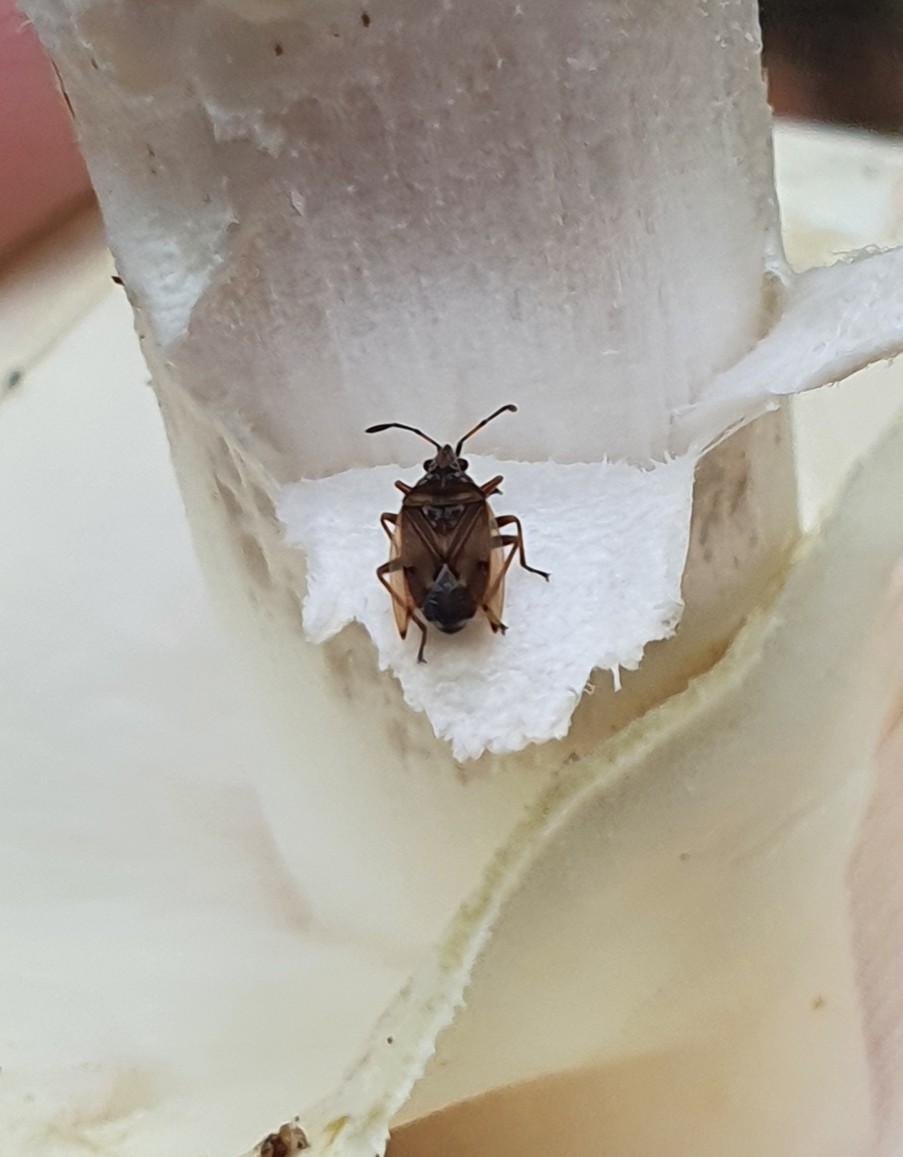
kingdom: Animalia
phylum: Arthropoda
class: Insecta
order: Hemiptera
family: Lygaeidae
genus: Kleidocerys
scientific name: Kleidocerys resedae
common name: Birch catkin bug
